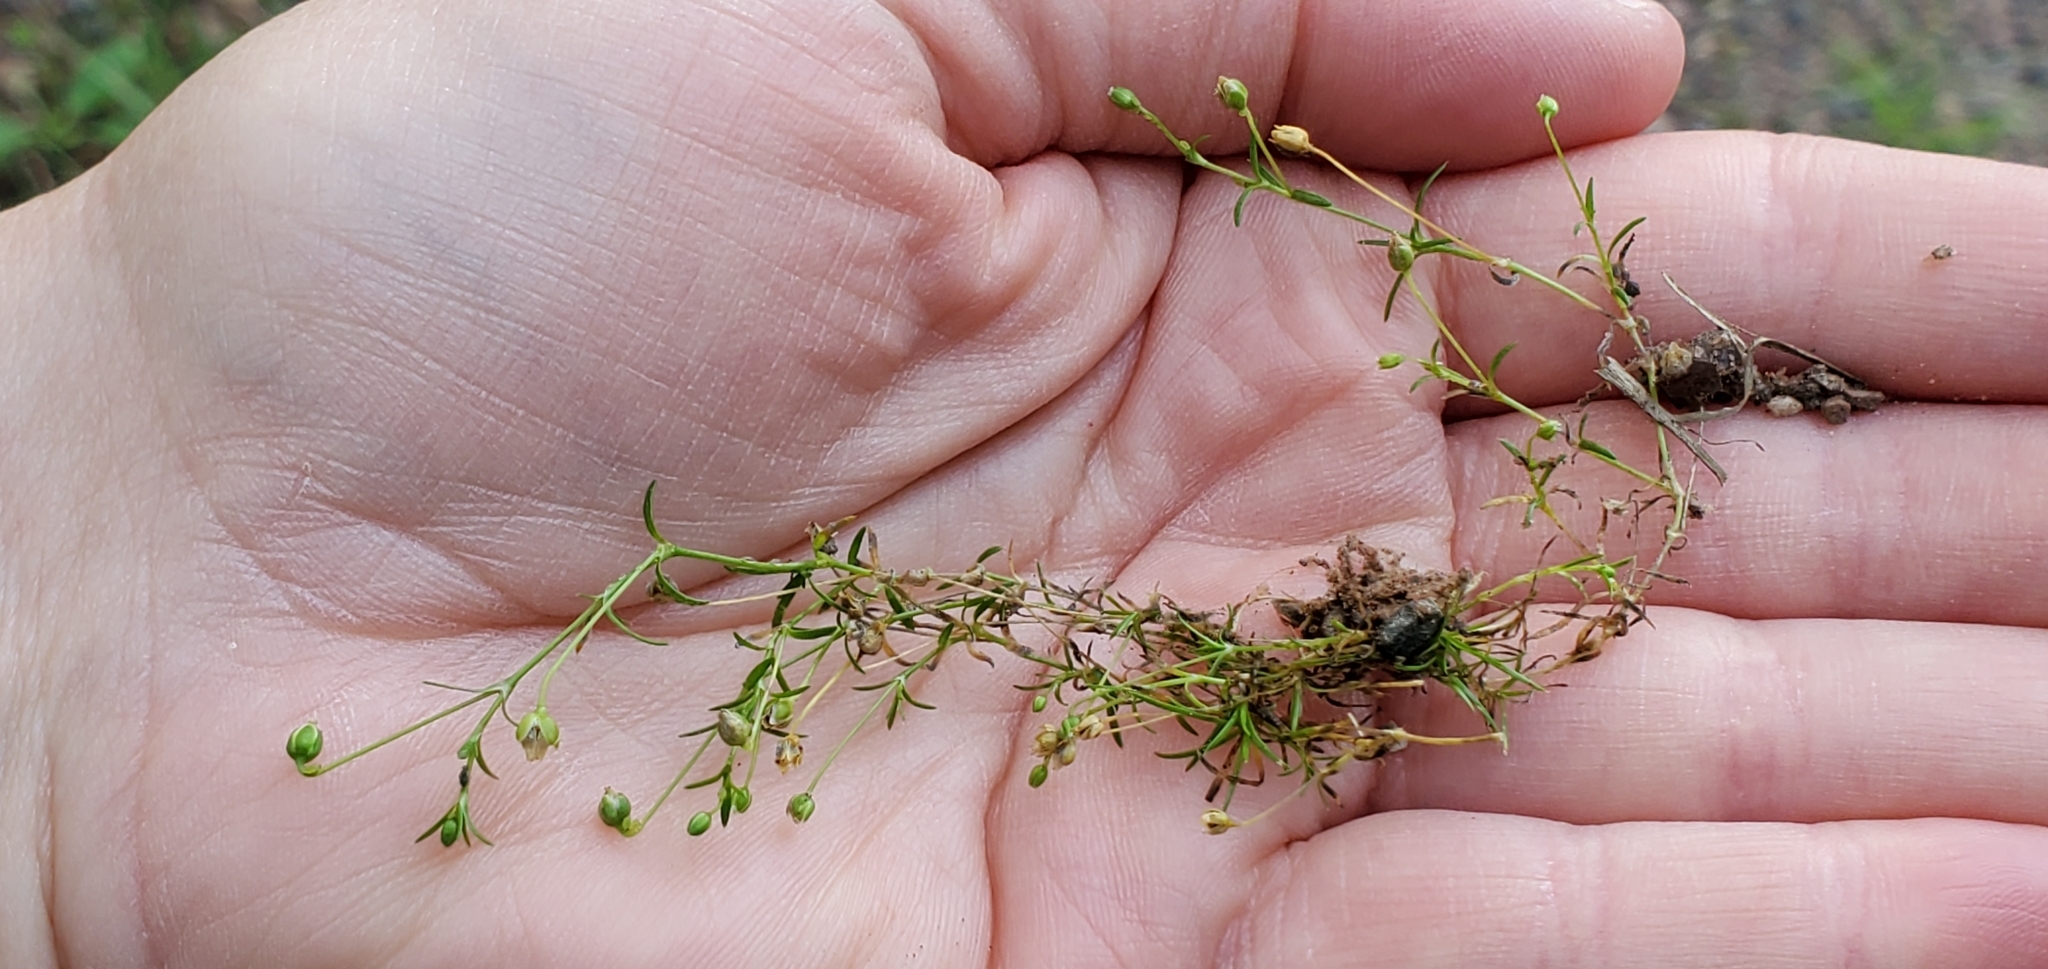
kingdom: Plantae
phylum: Tracheophyta
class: Magnoliopsida
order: Caryophyllales
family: Caryophyllaceae
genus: Sagina
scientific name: Sagina procumbens
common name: Procumbent pearlwort
